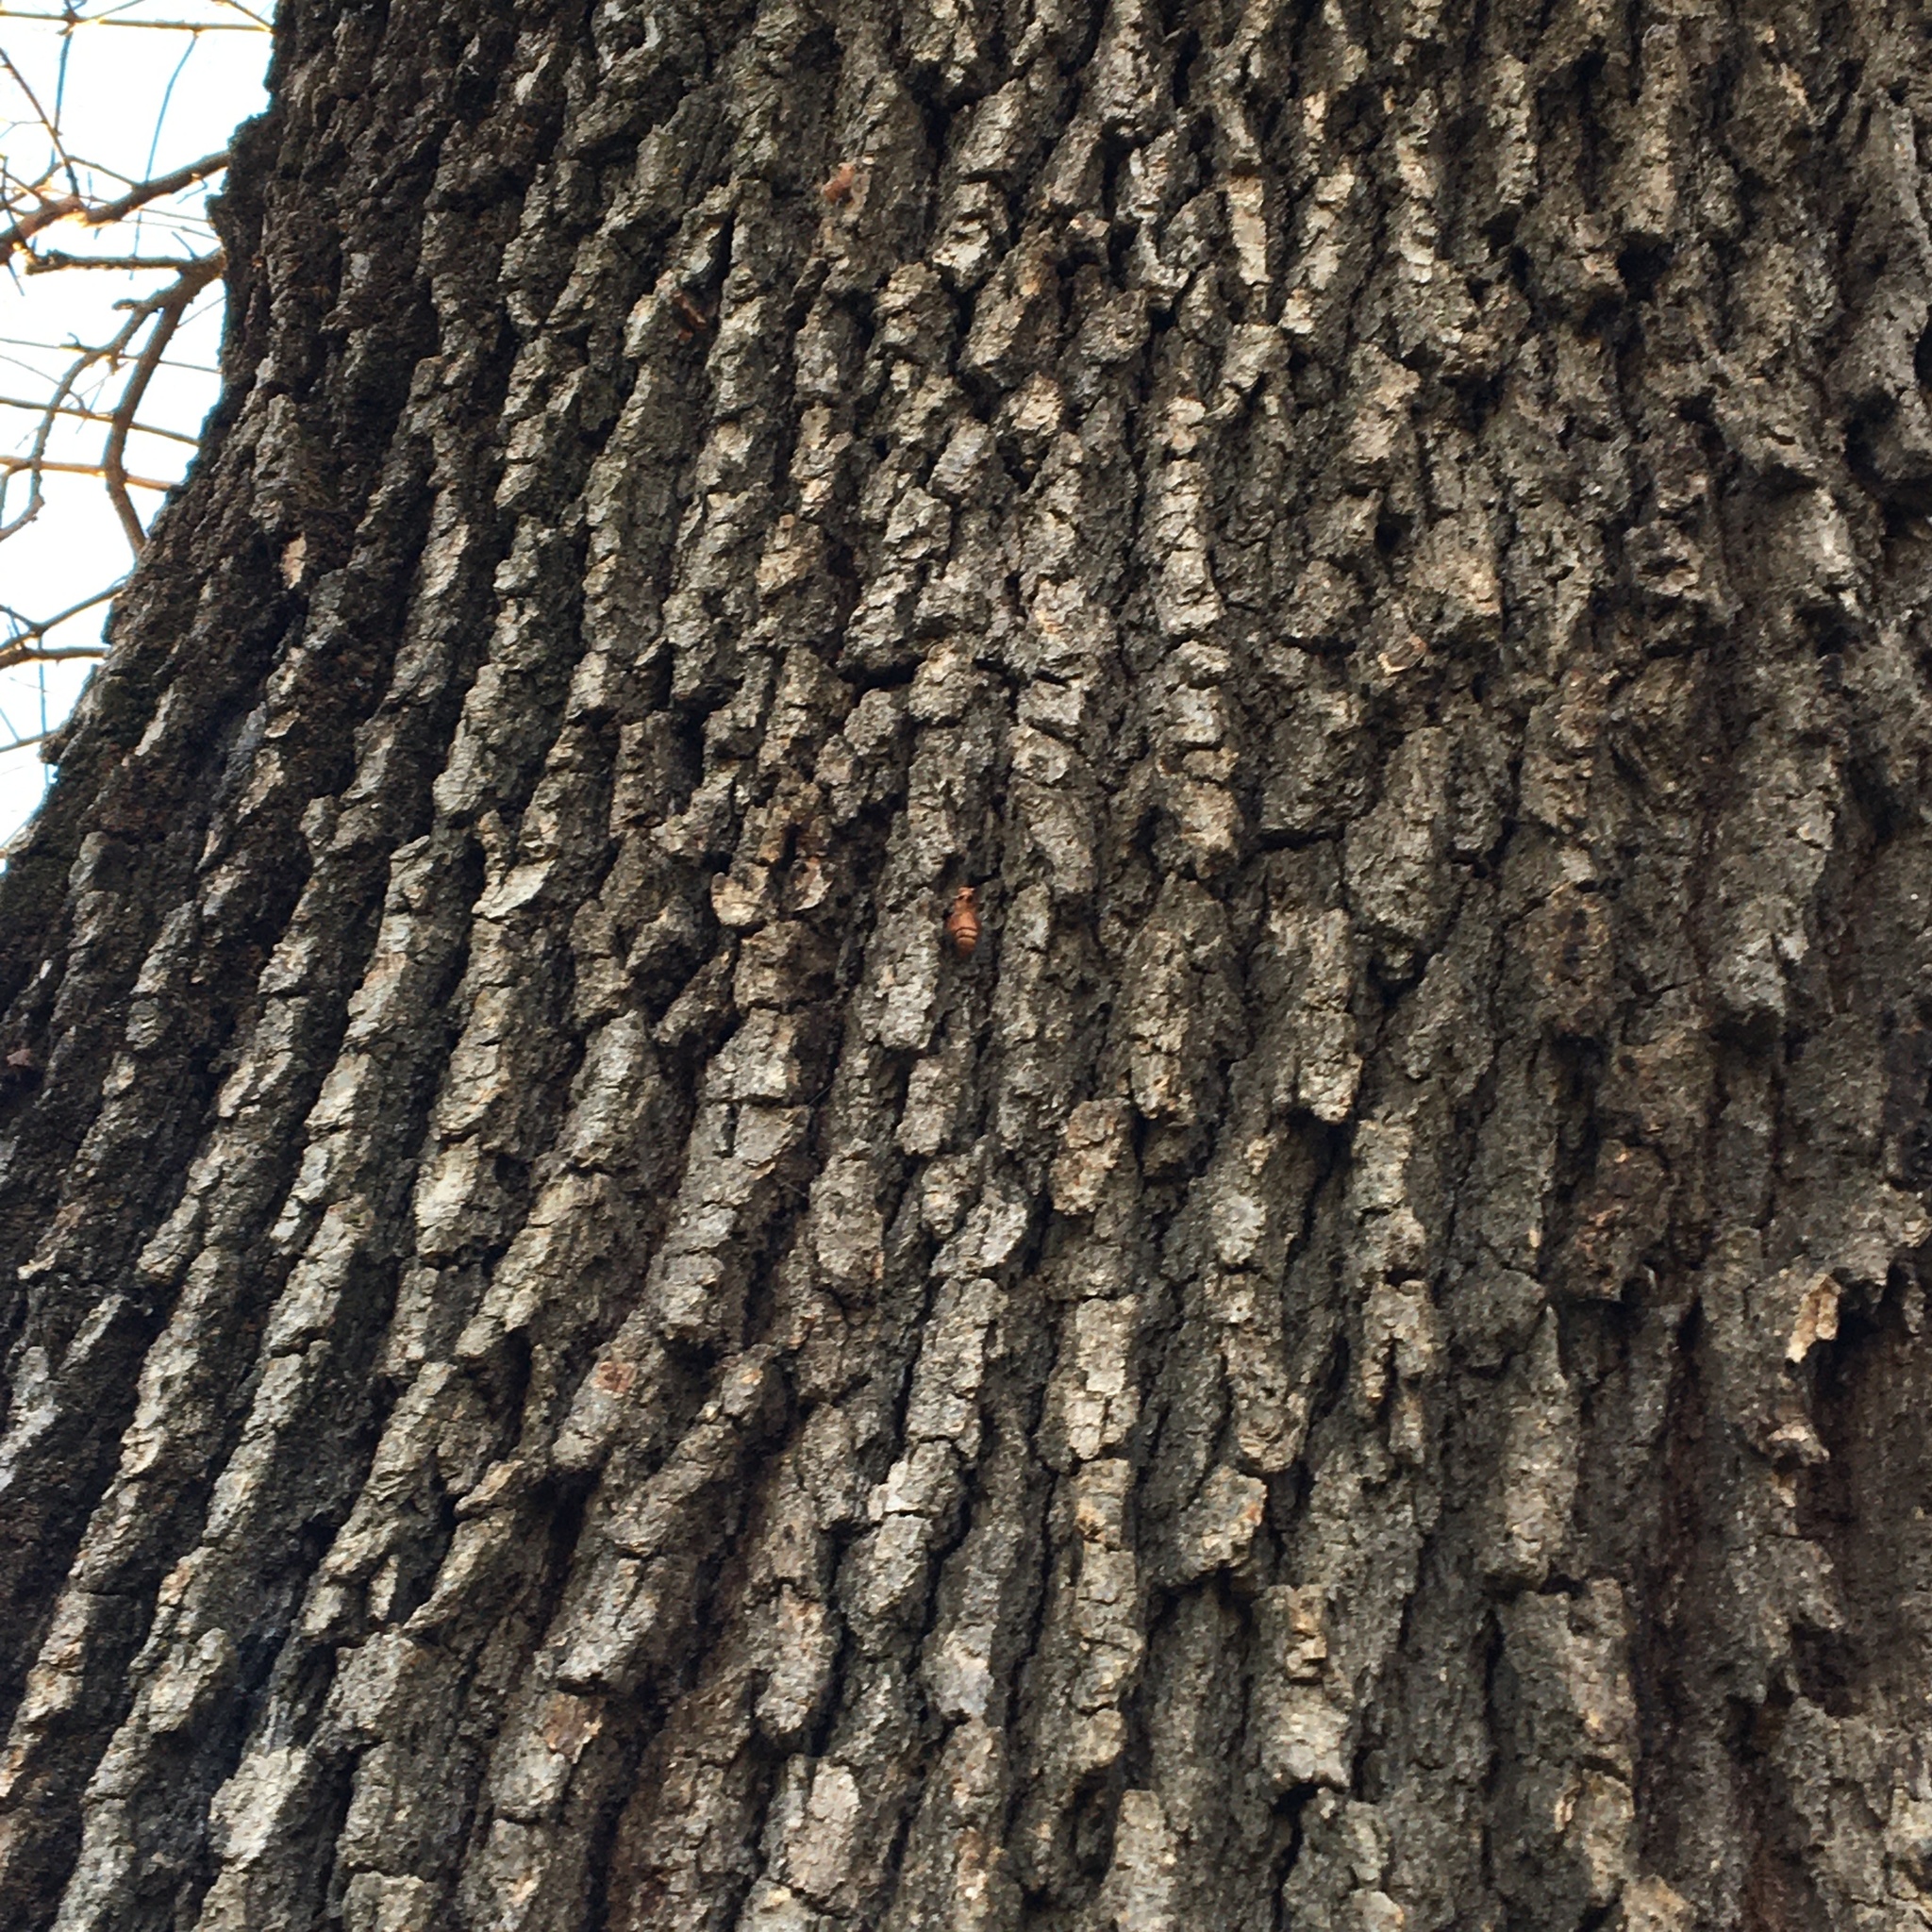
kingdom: Animalia
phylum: Arthropoda
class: Insecta
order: Lepidoptera
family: Papilionidae
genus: Battus
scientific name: Battus philenor
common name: Pipevine swallowtail
